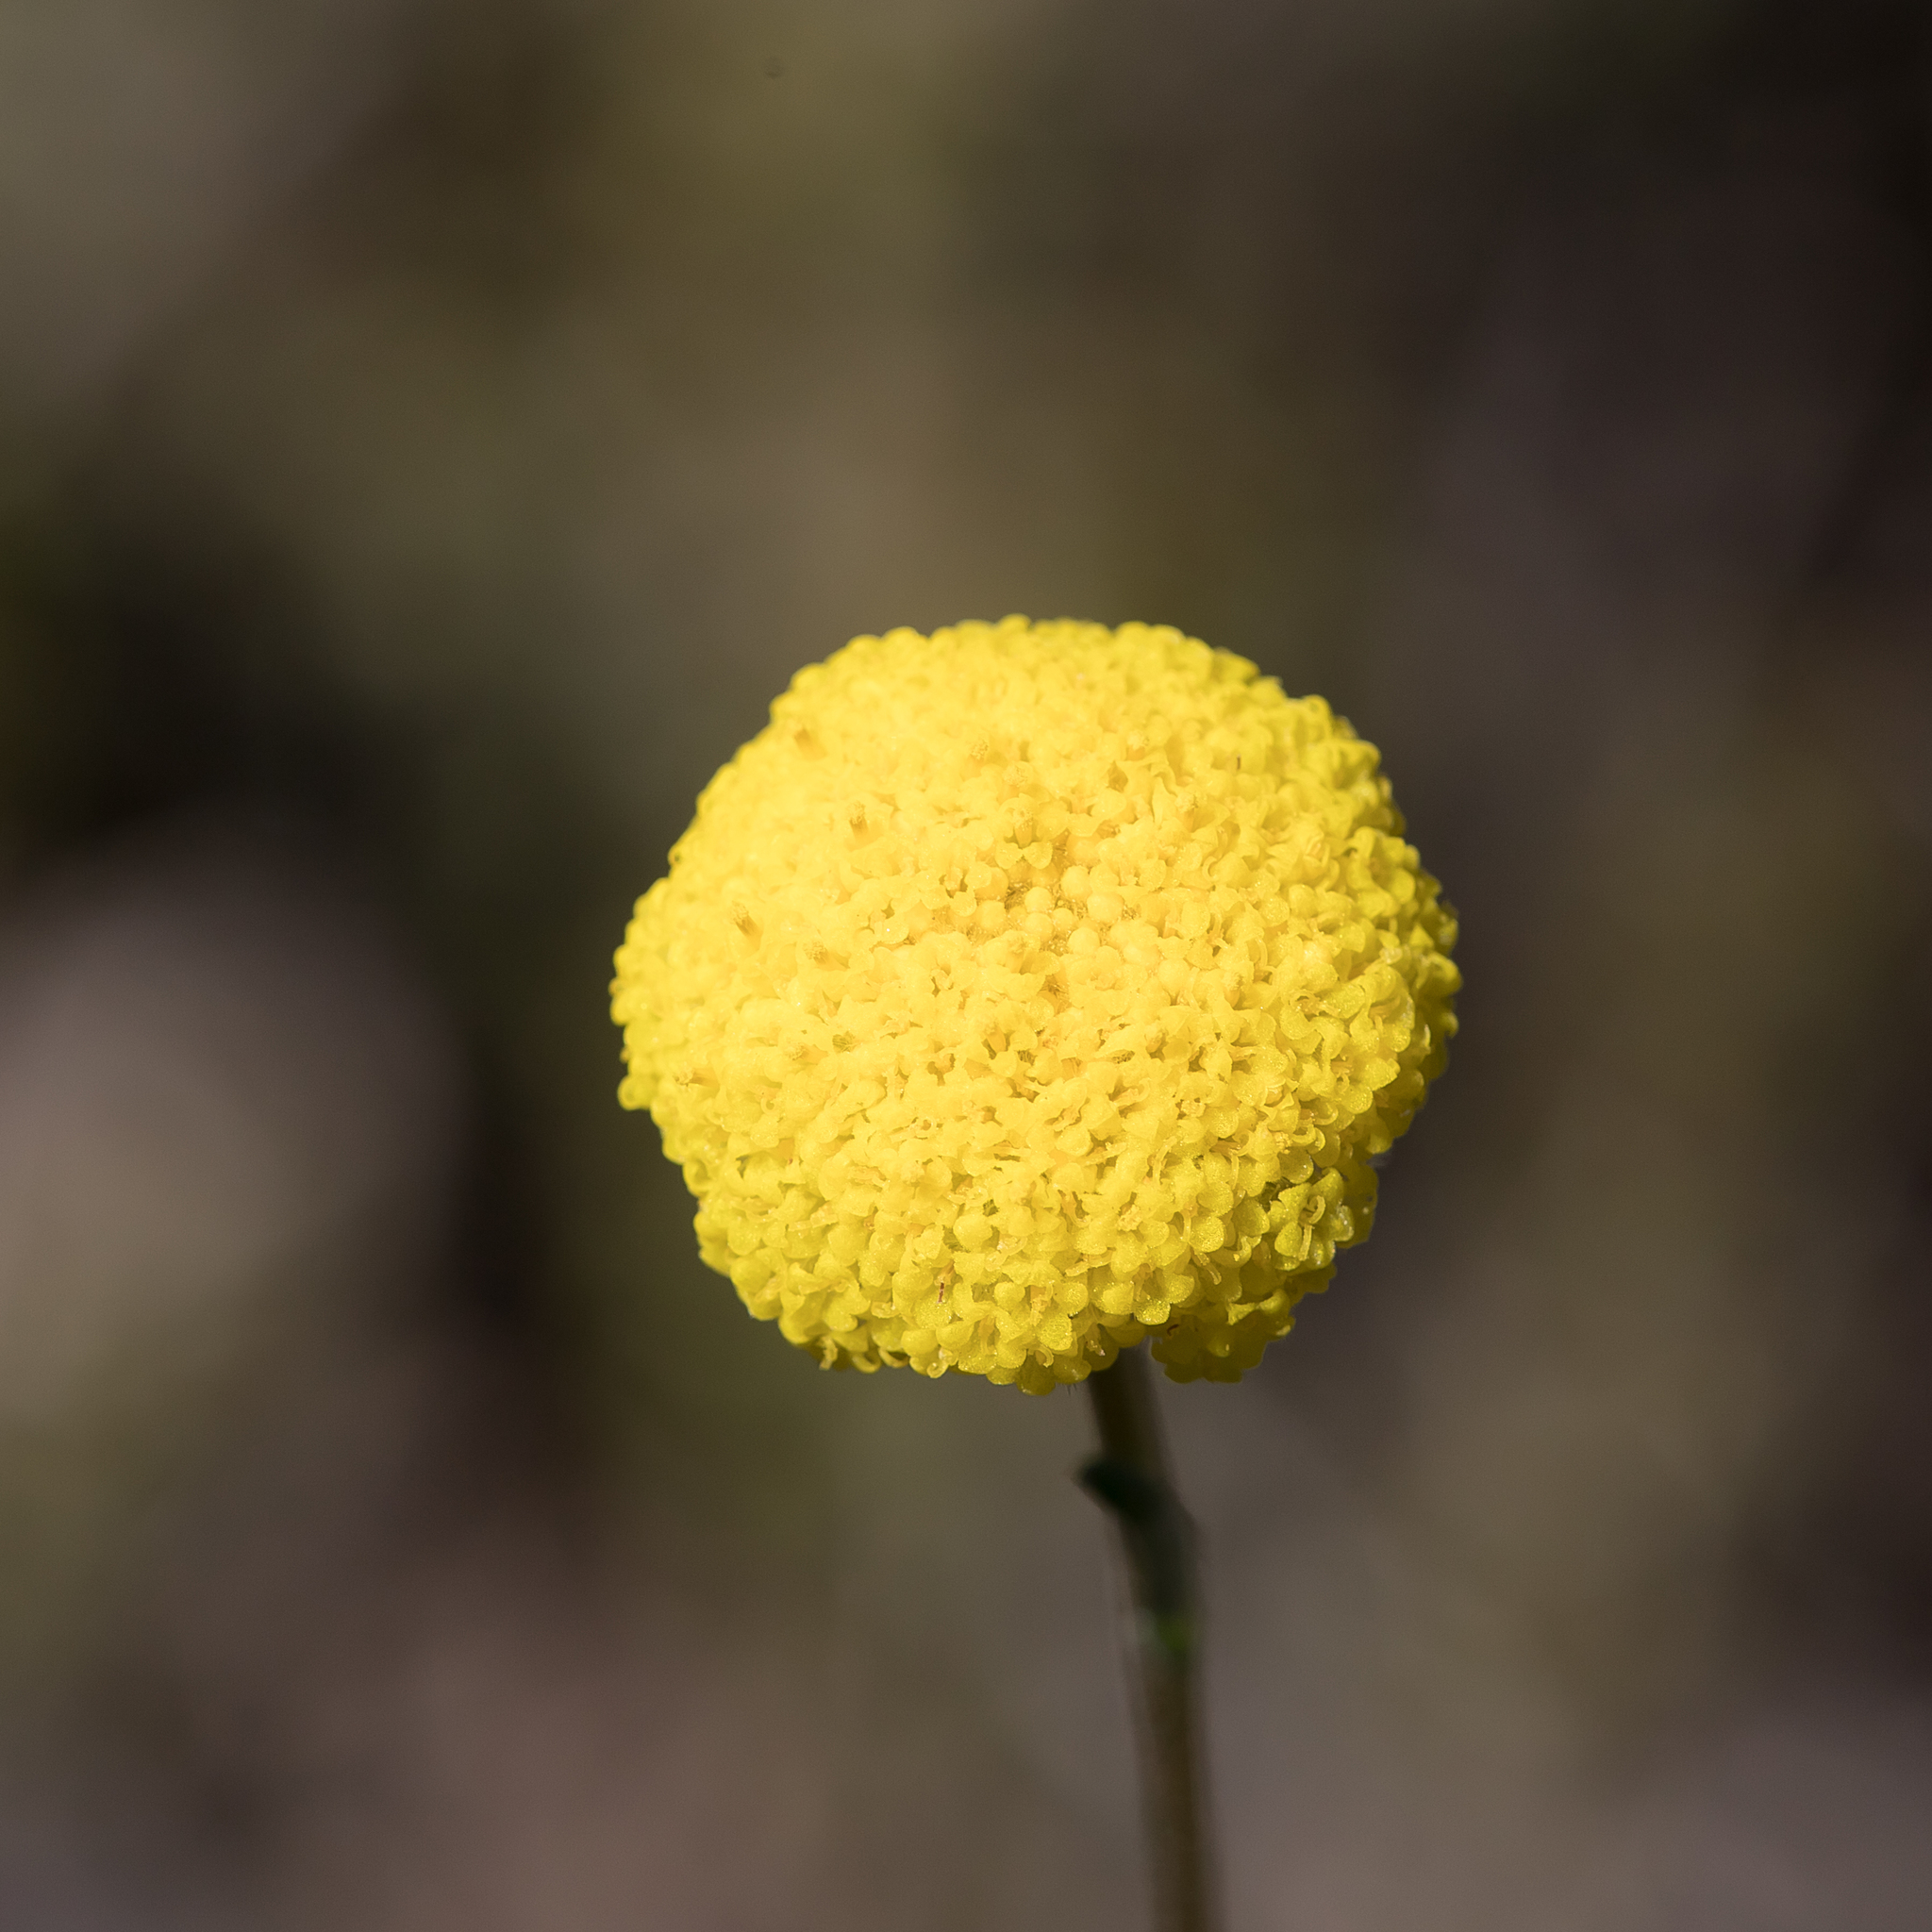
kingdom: Plantae
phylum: Tracheophyta
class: Magnoliopsida
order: Asterales
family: Asteraceae
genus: Craspedia
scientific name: Craspedia variabilis
